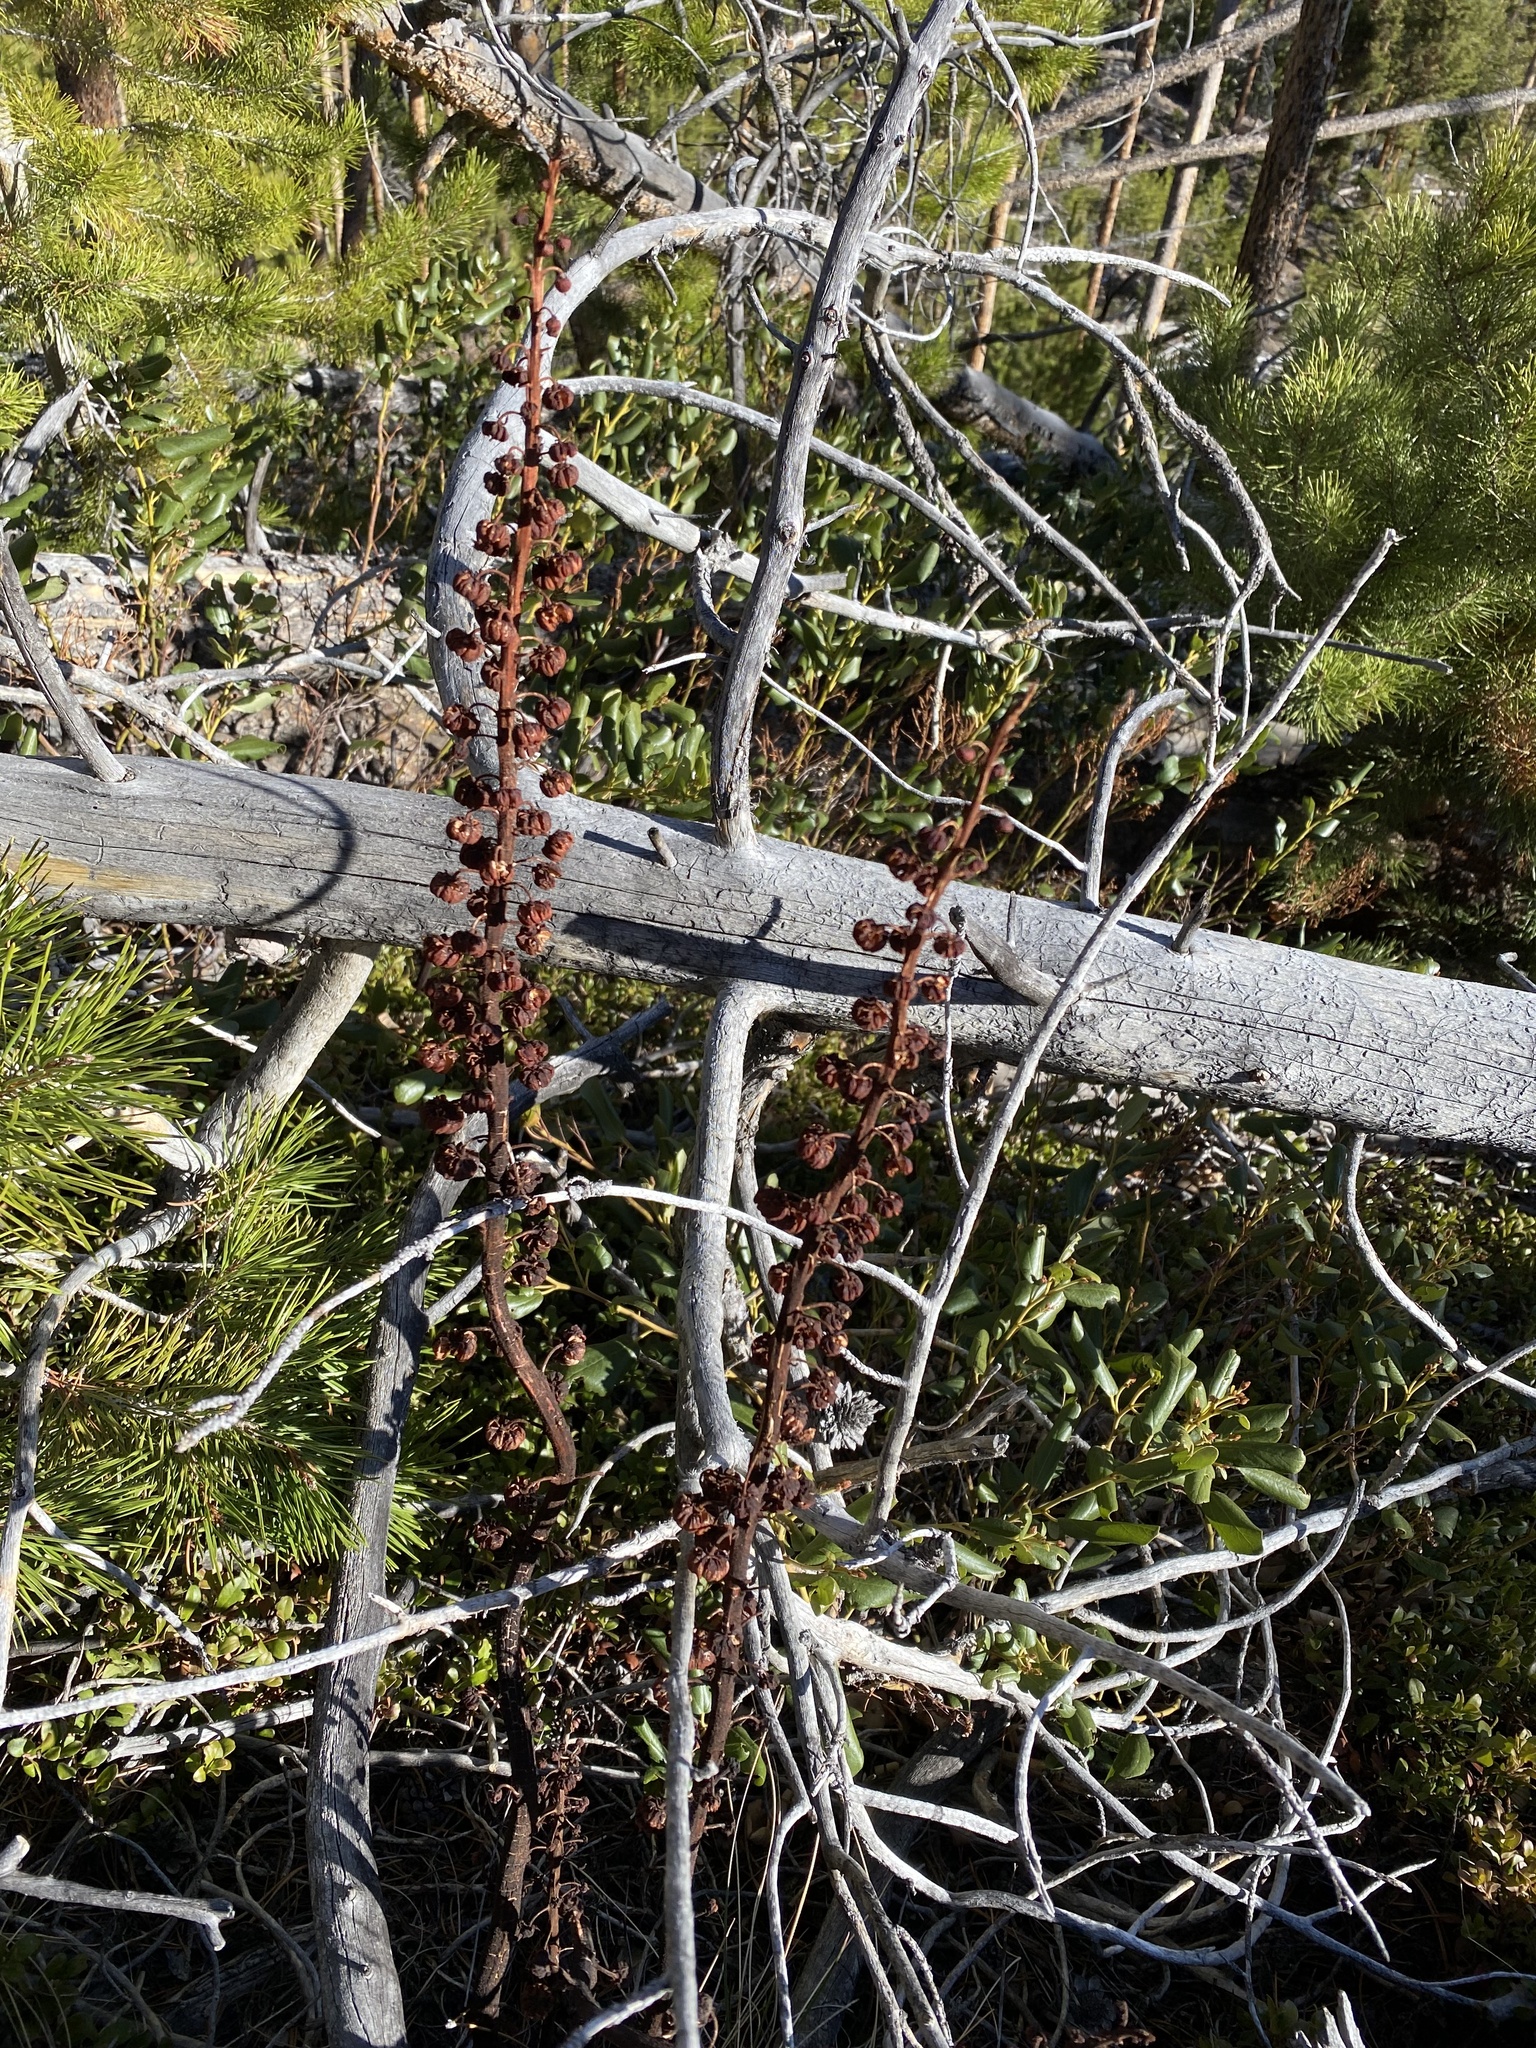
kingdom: Plantae
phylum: Tracheophyta
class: Magnoliopsida
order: Ericales
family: Ericaceae
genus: Pterospora
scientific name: Pterospora andromedea
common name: Giant bird's-nest
